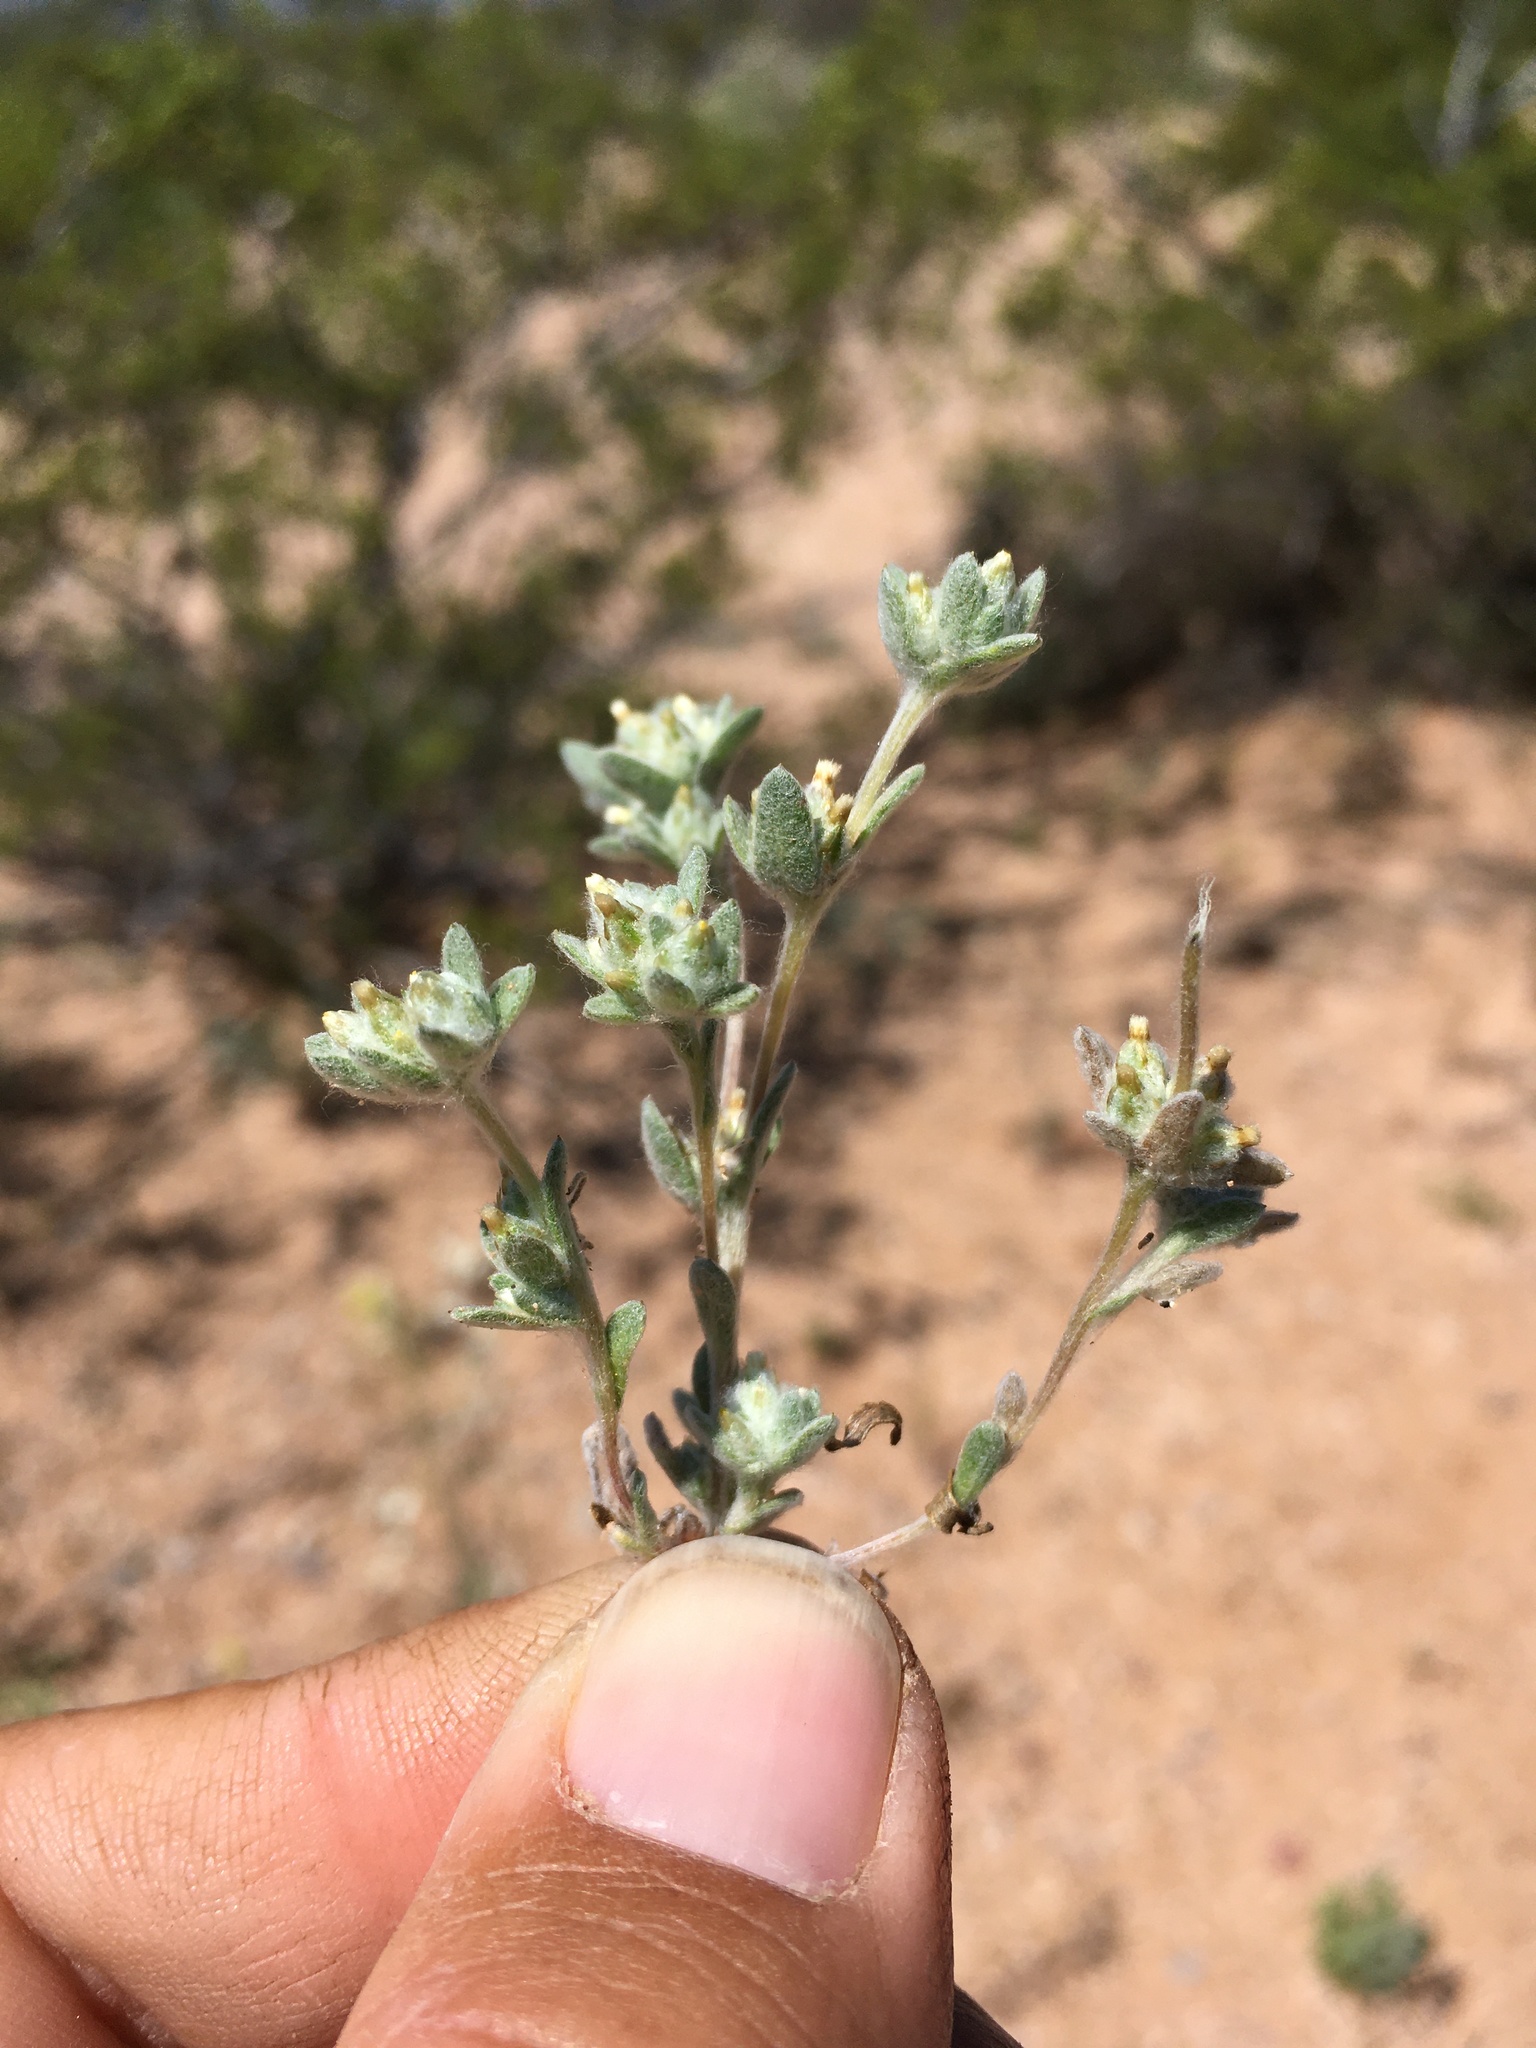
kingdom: Plantae
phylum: Tracheophyta
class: Magnoliopsida
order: Asterales
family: Asteraceae
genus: Logfia
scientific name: Logfia depressa
